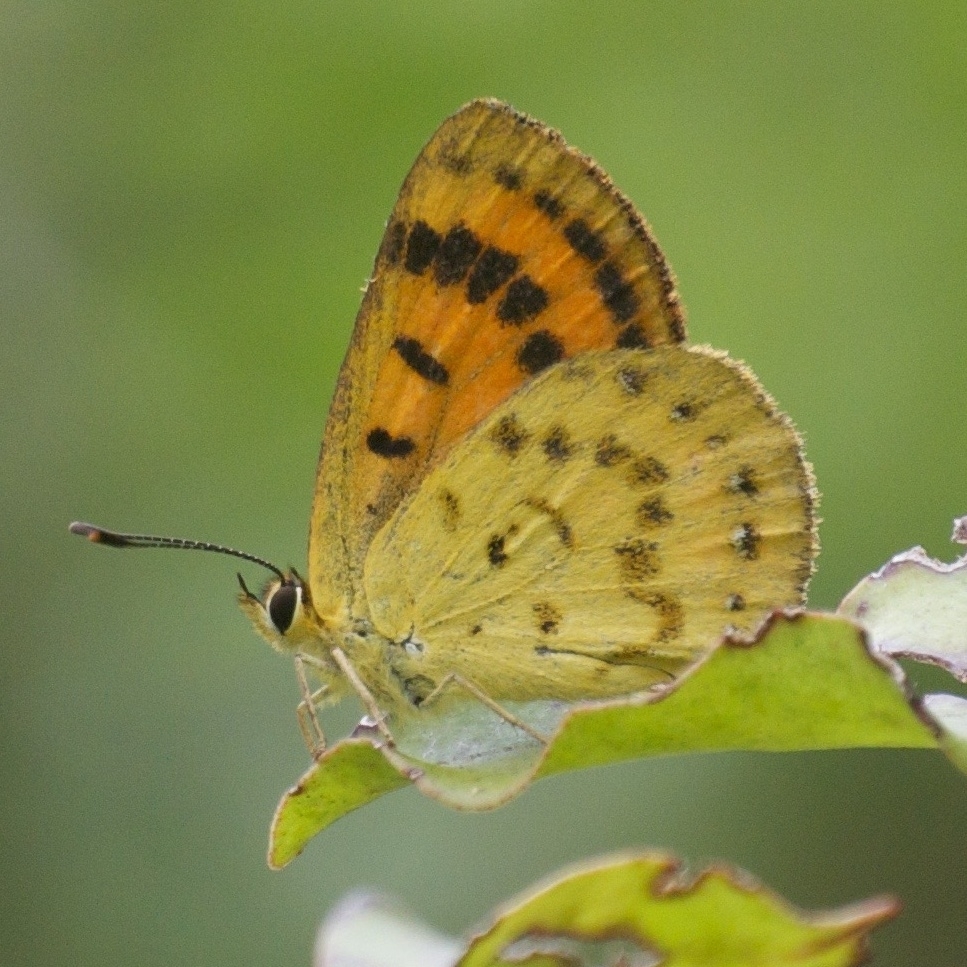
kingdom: Animalia
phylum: Arthropoda
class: Insecta
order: Lepidoptera
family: Lycaenidae
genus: Lycaena
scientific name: Lycaena salustius
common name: North island coastal copper
